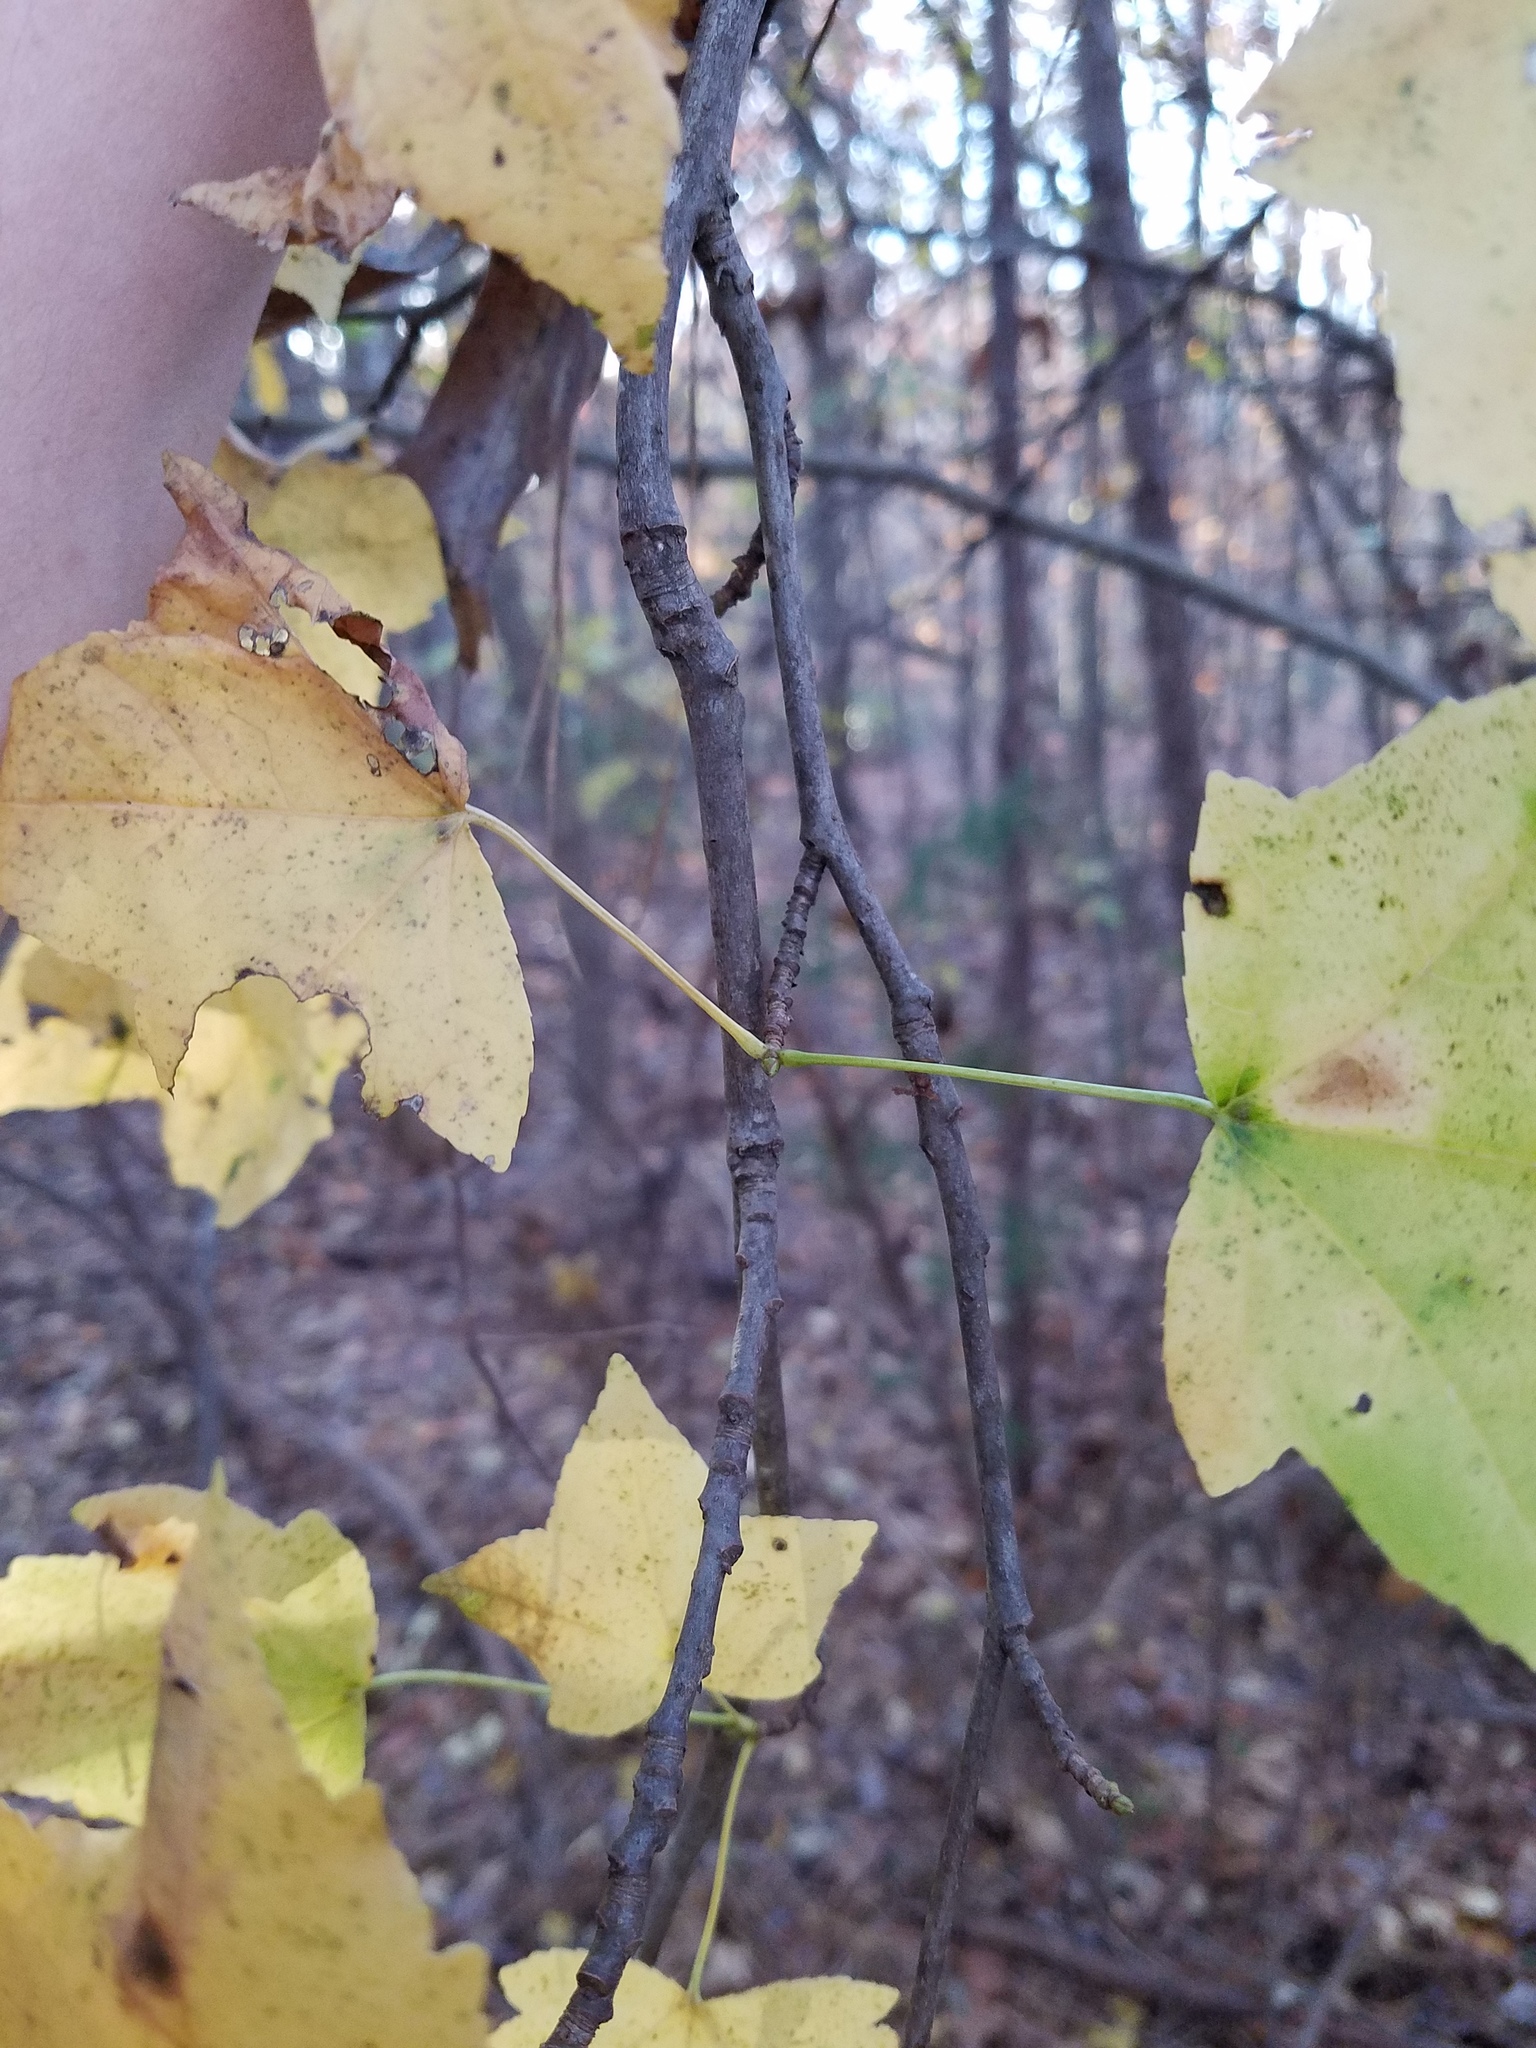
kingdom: Plantae
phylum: Tracheophyta
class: Magnoliopsida
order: Saxifragales
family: Altingiaceae
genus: Liquidambar
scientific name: Liquidambar styraciflua
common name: Sweet gum
